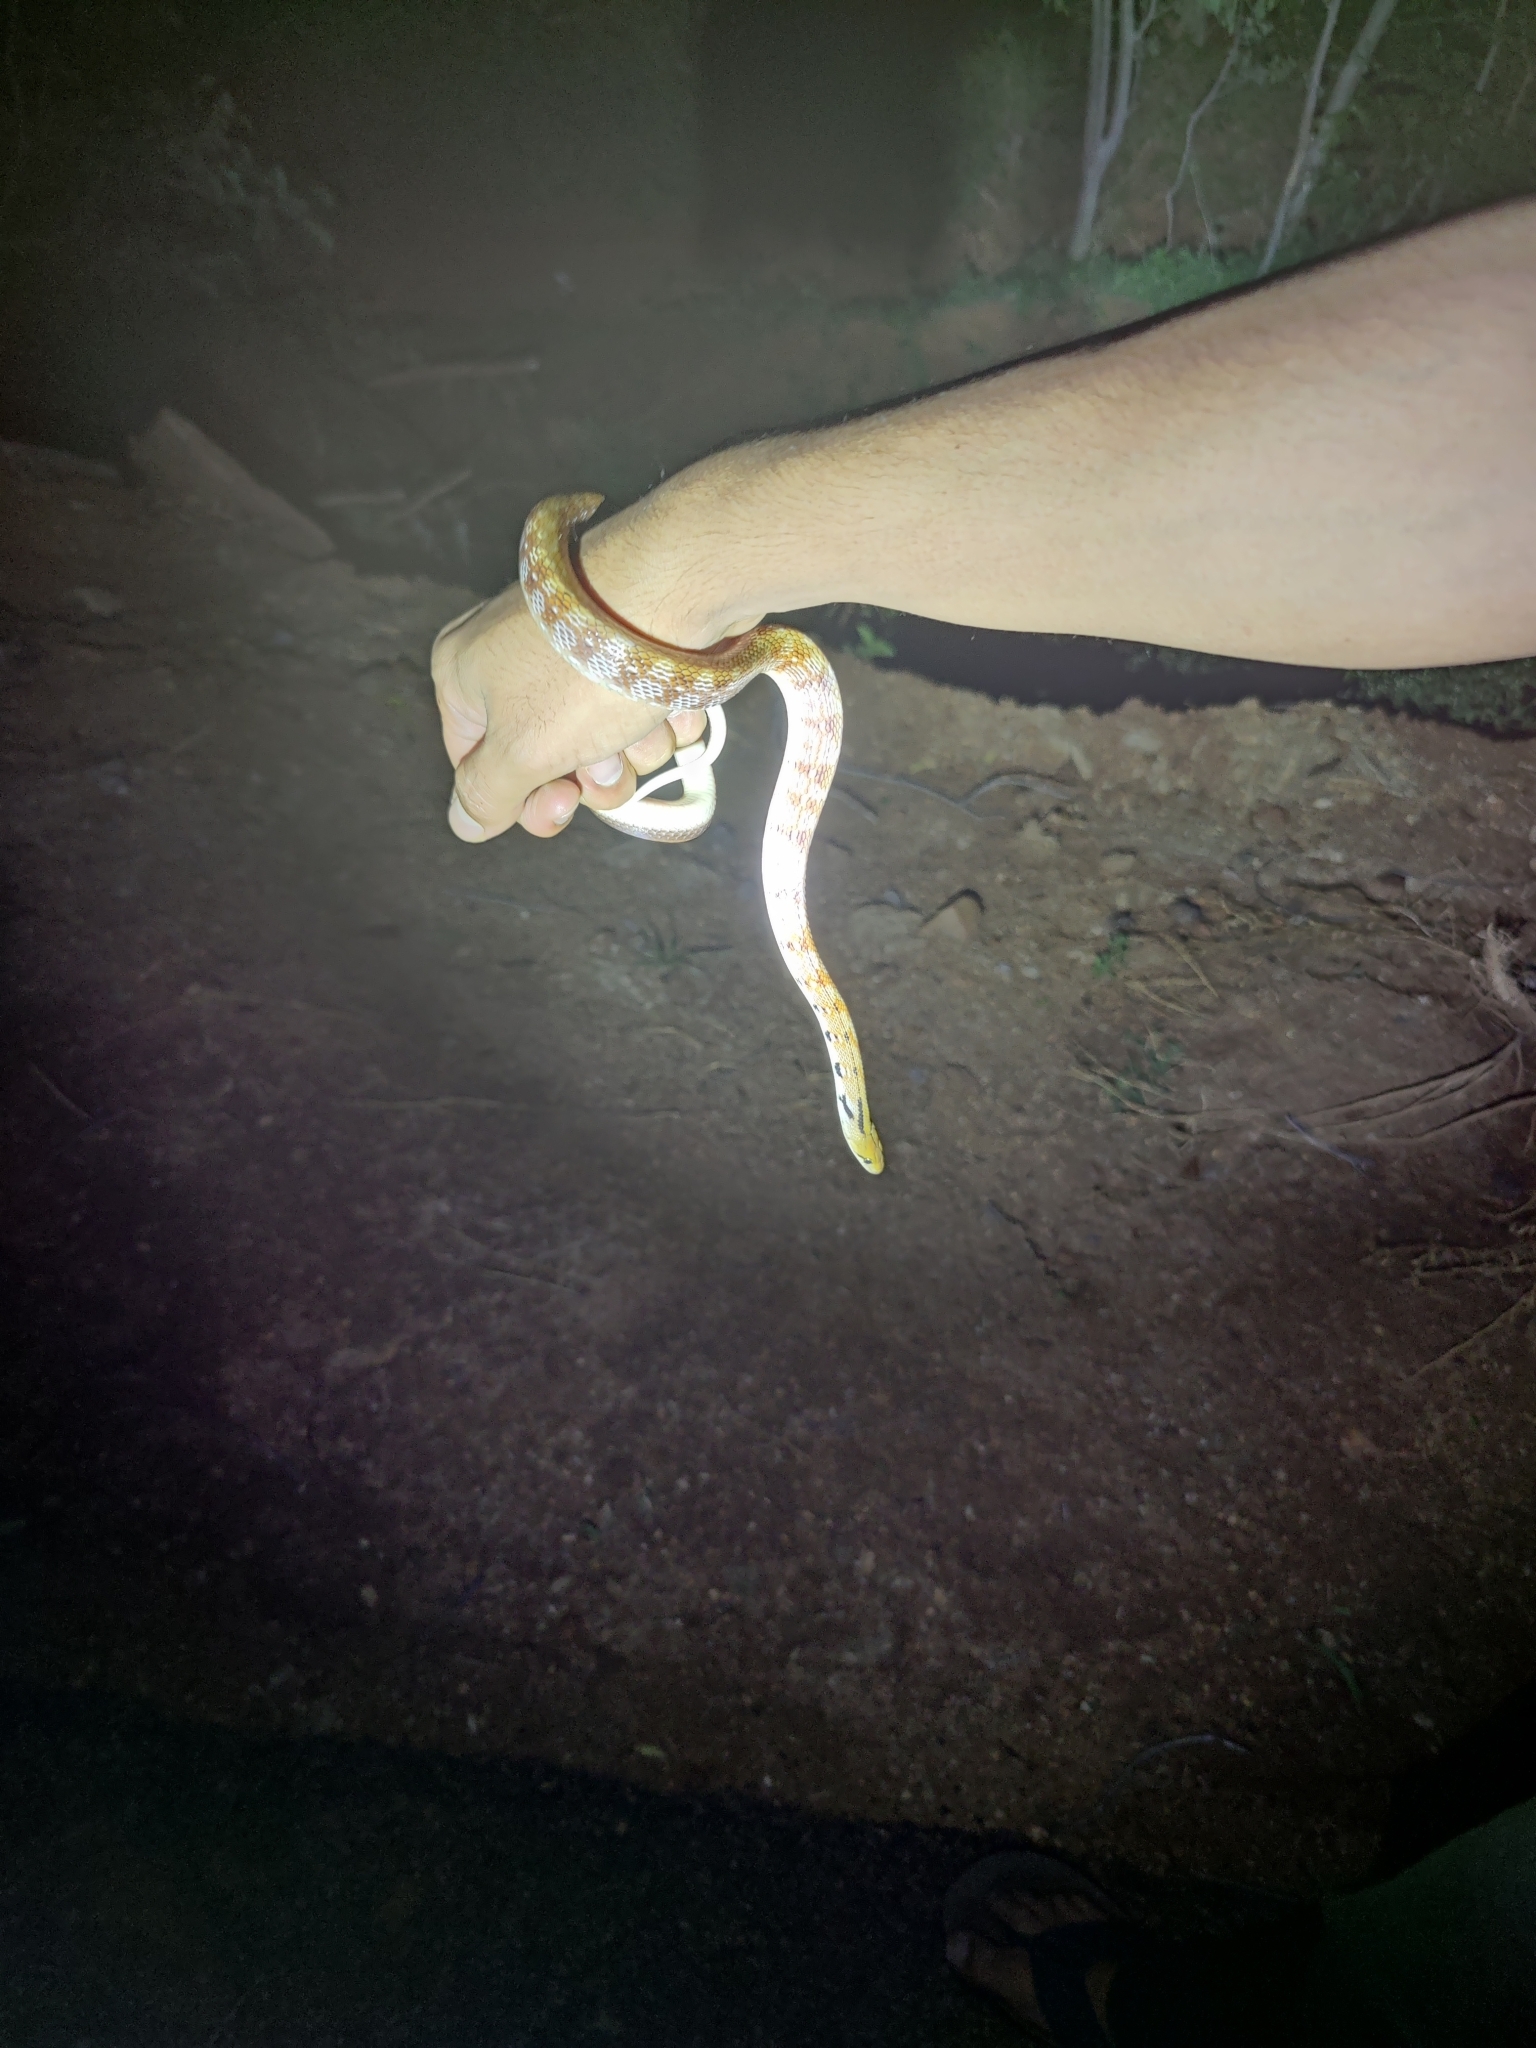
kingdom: Animalia
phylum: Chordata
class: Squamata
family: Colubridae
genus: Coelognathus
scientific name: Coelognathus helena
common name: Trinket snake
